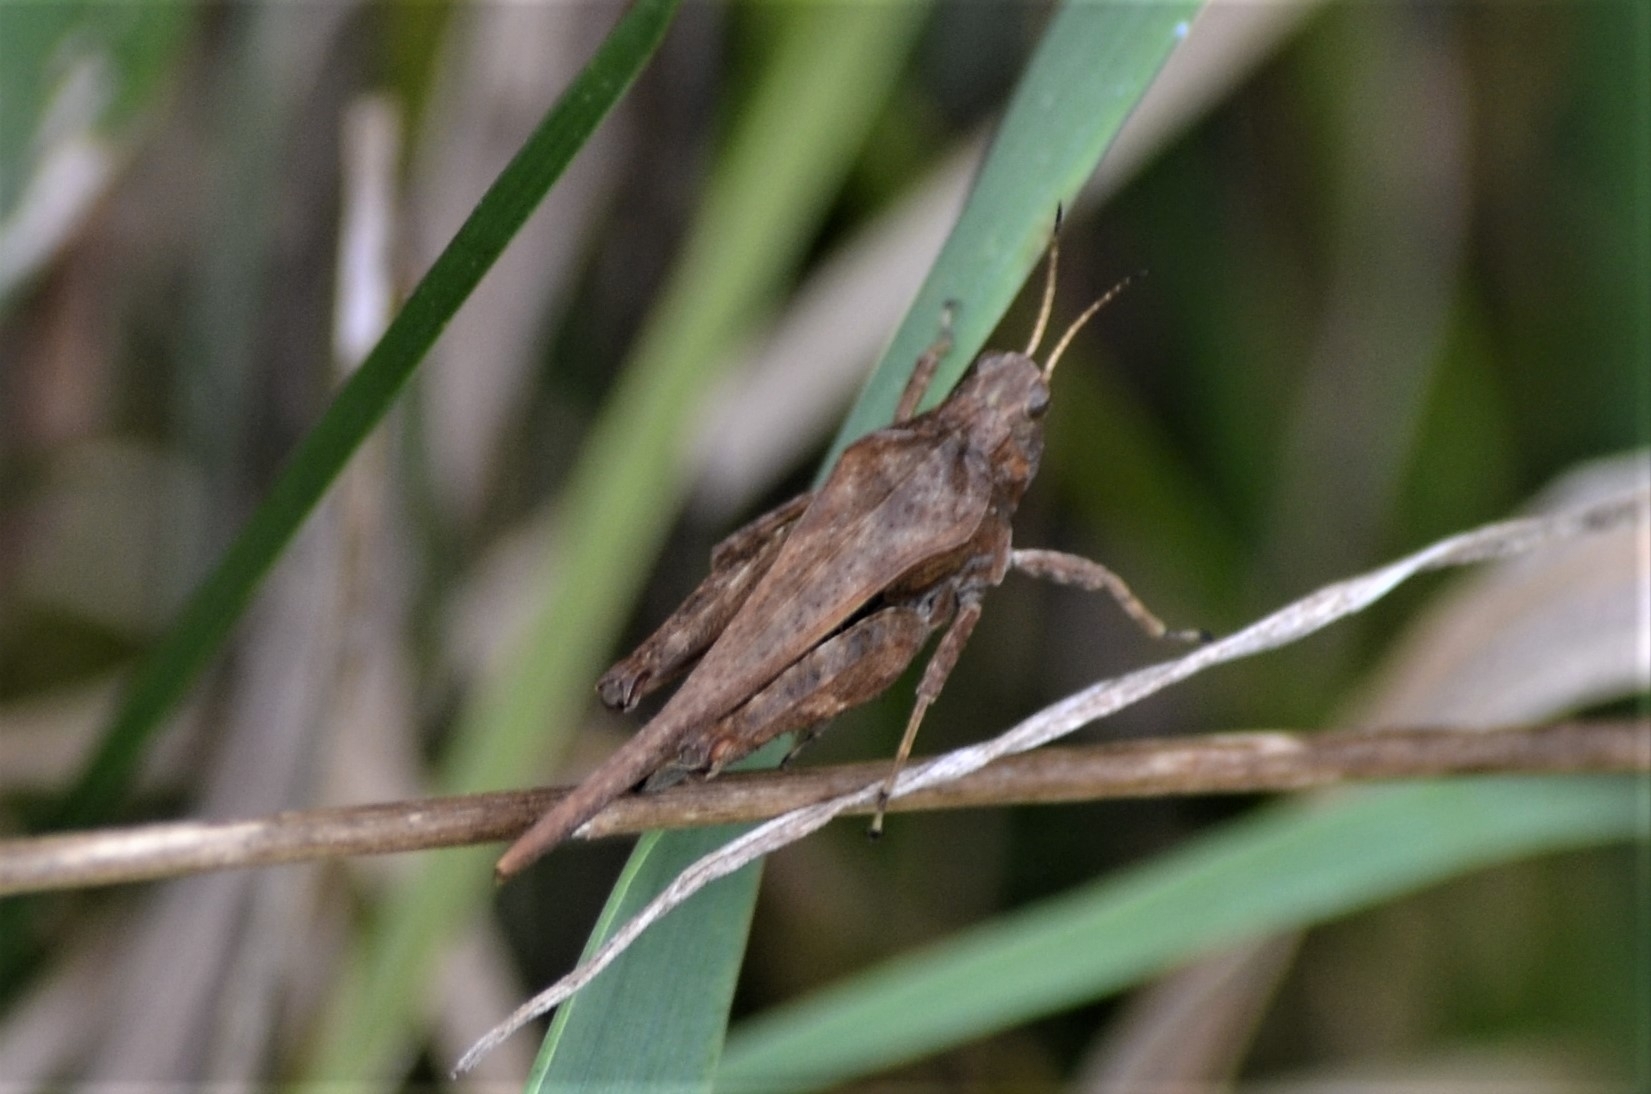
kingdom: Animalia
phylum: Arthropoda
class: Insecta
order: Orthoptera
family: Tetrigidae
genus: Tetrix
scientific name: Tetrix subulata
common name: Slender ground-hopper
